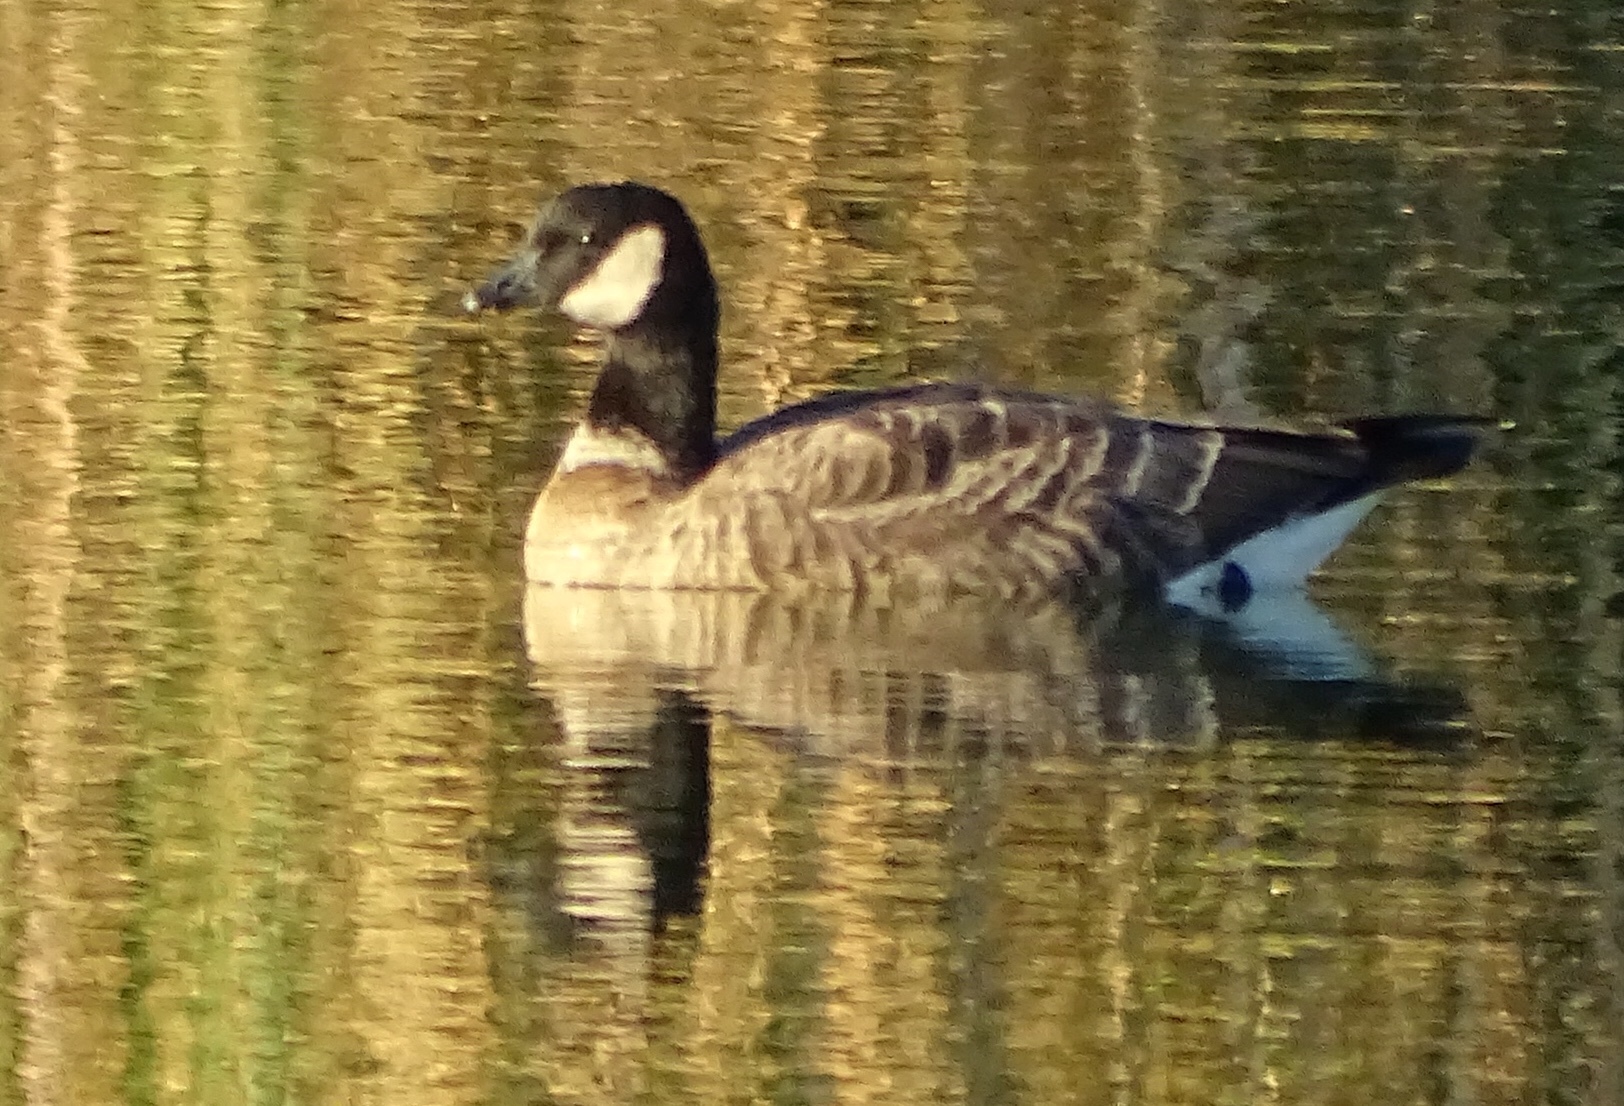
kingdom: Animalia
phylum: Chordata
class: Aves
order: Anseriformes
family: Anatidae
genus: Branta
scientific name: Branta hutchinsii
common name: Cackling goose
